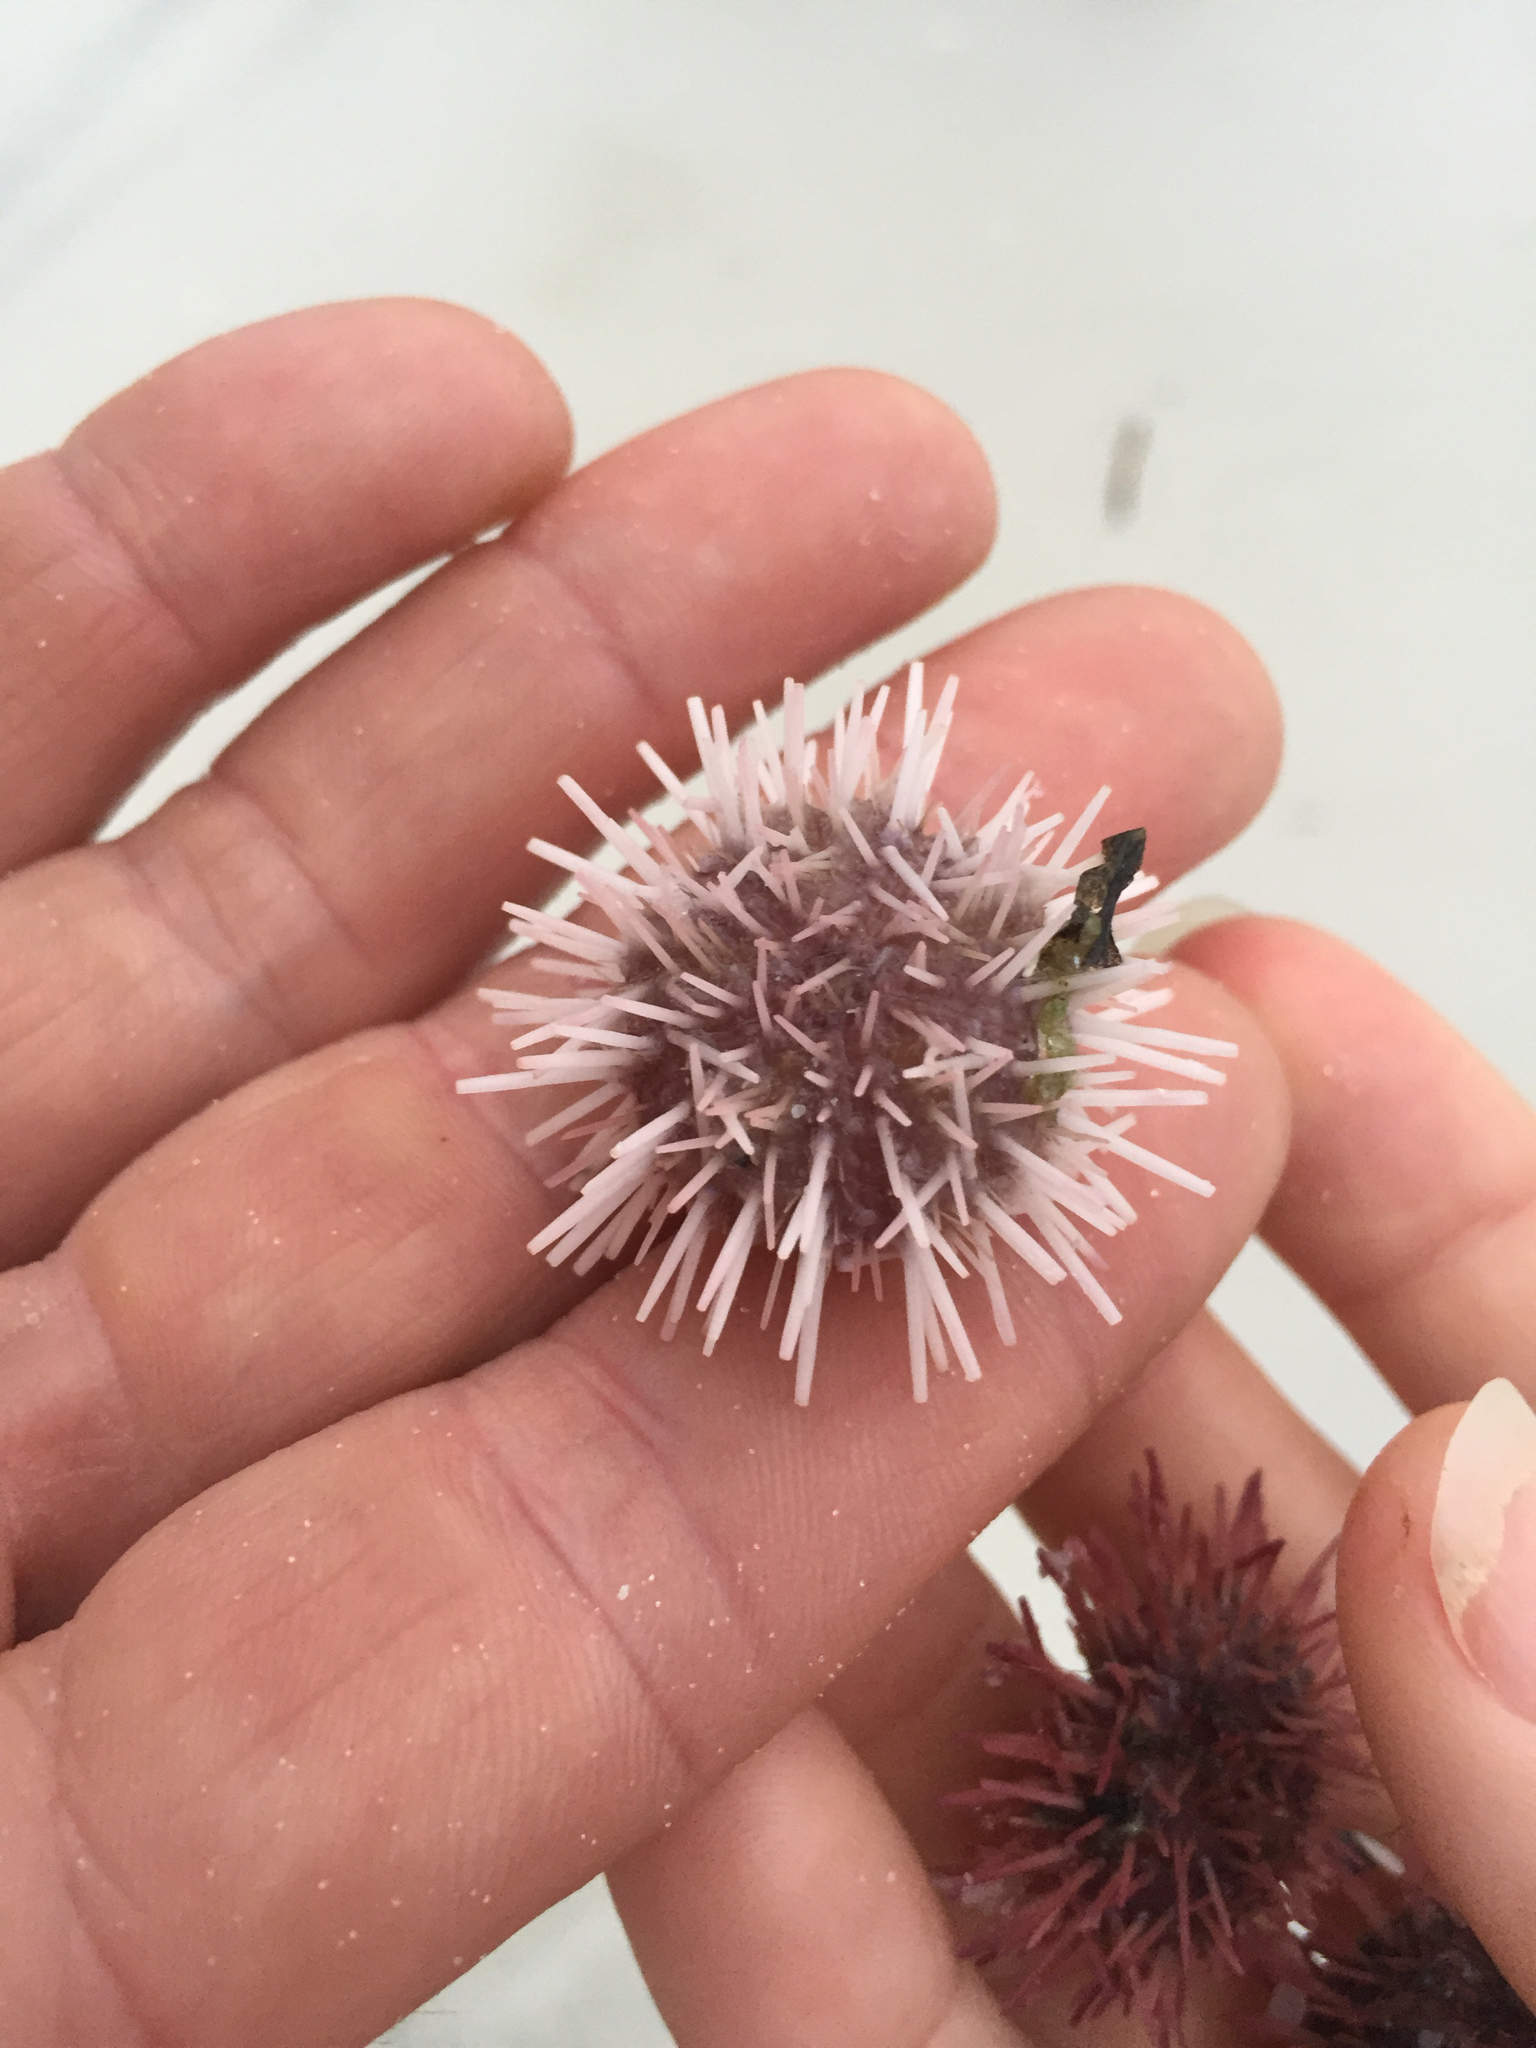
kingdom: Animalia
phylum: Echinodermata
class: Echinoidea
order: Arbacioida
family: Arbaciidae
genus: Arbacia
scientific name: Arbacia punctulata
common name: Purple-spined sea urchin
